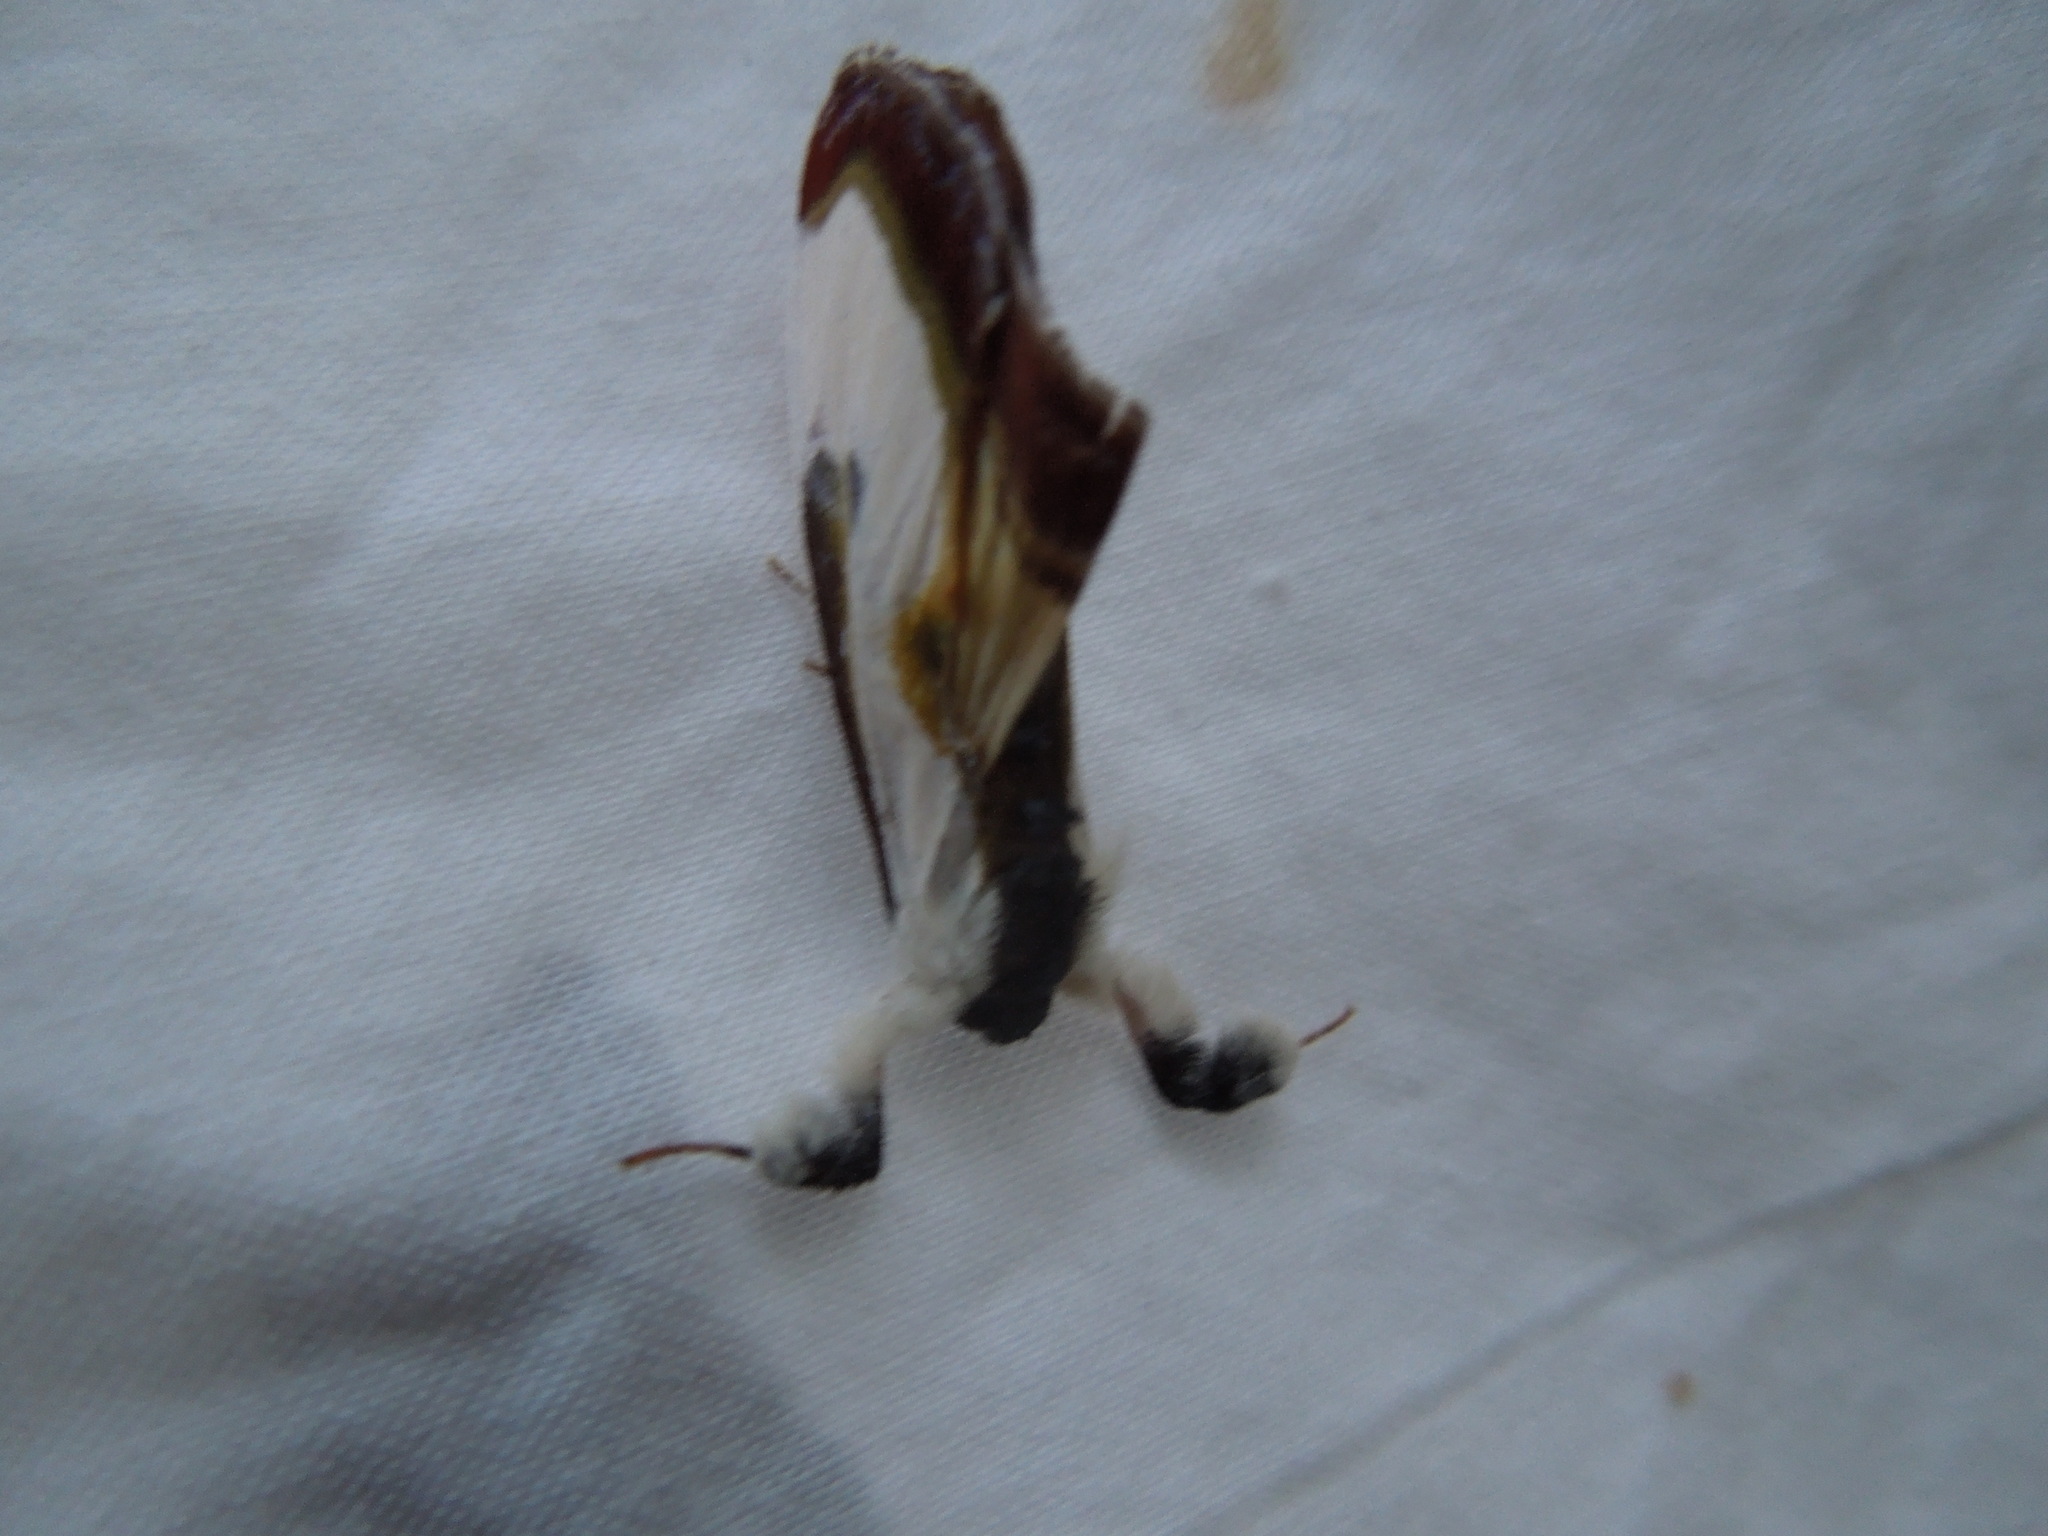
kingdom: Animalia
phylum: Arthropoda
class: Insecta
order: Lepidoptera
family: Noctuidae
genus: Eudryas
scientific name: Eudryas grata
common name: Beautiful wood-nymph
